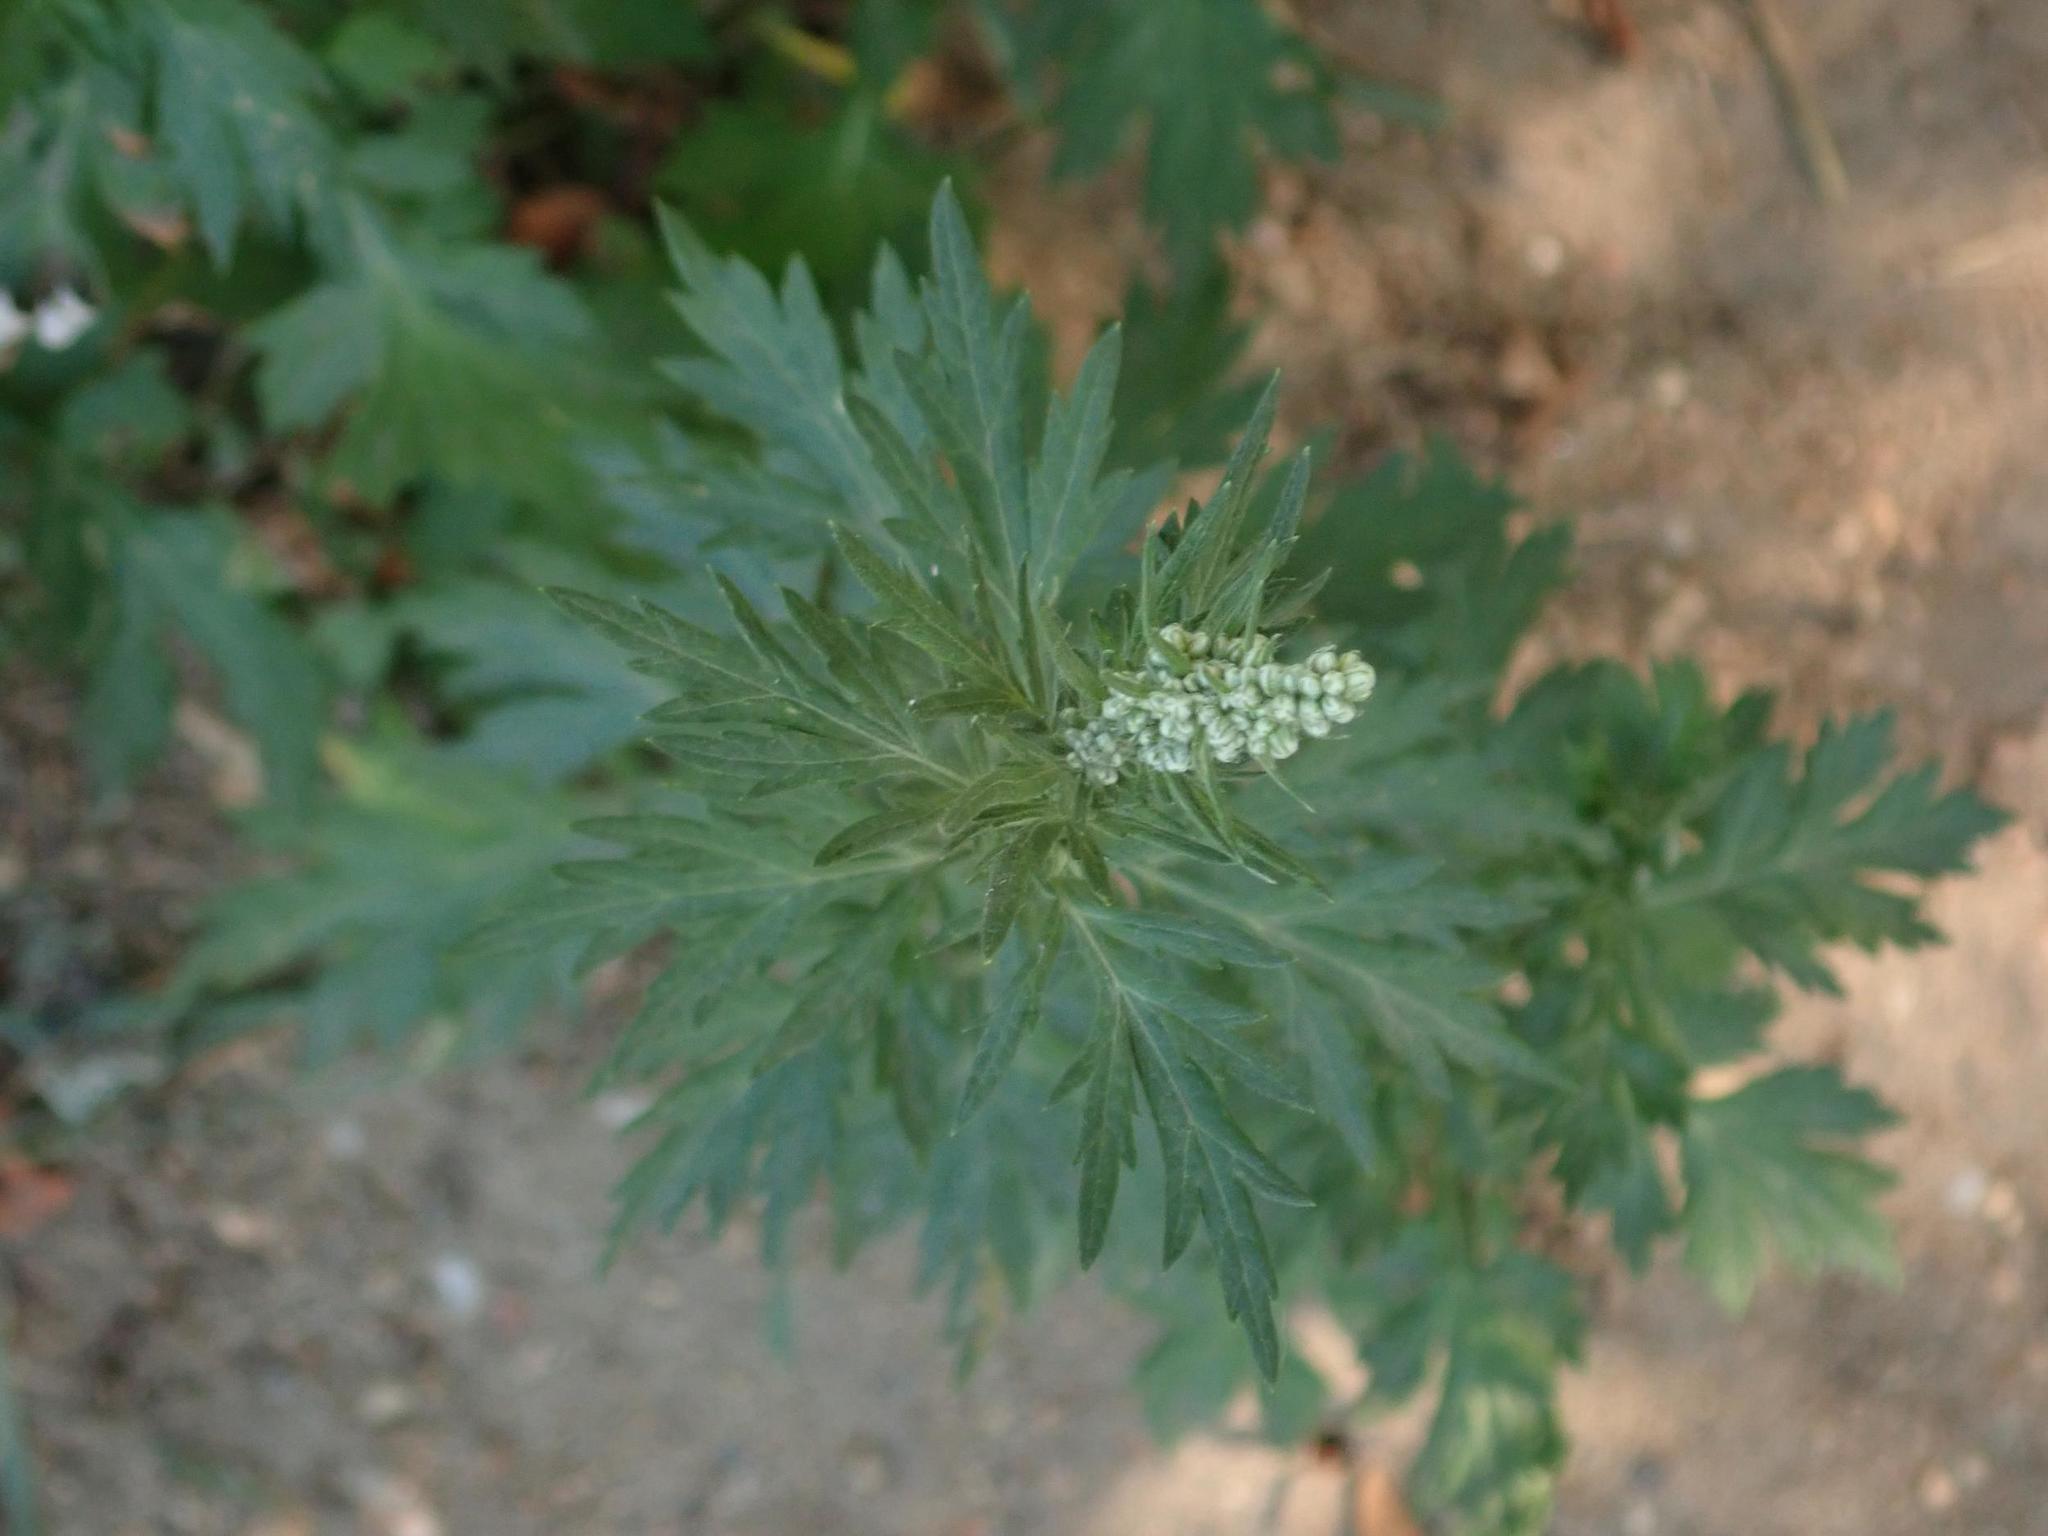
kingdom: Plantae
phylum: Tracheophyta
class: Magnoliopsida
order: Asterales
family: Asteraceae
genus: Artemisia
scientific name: Artemisia vulgaris
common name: Mugwort
